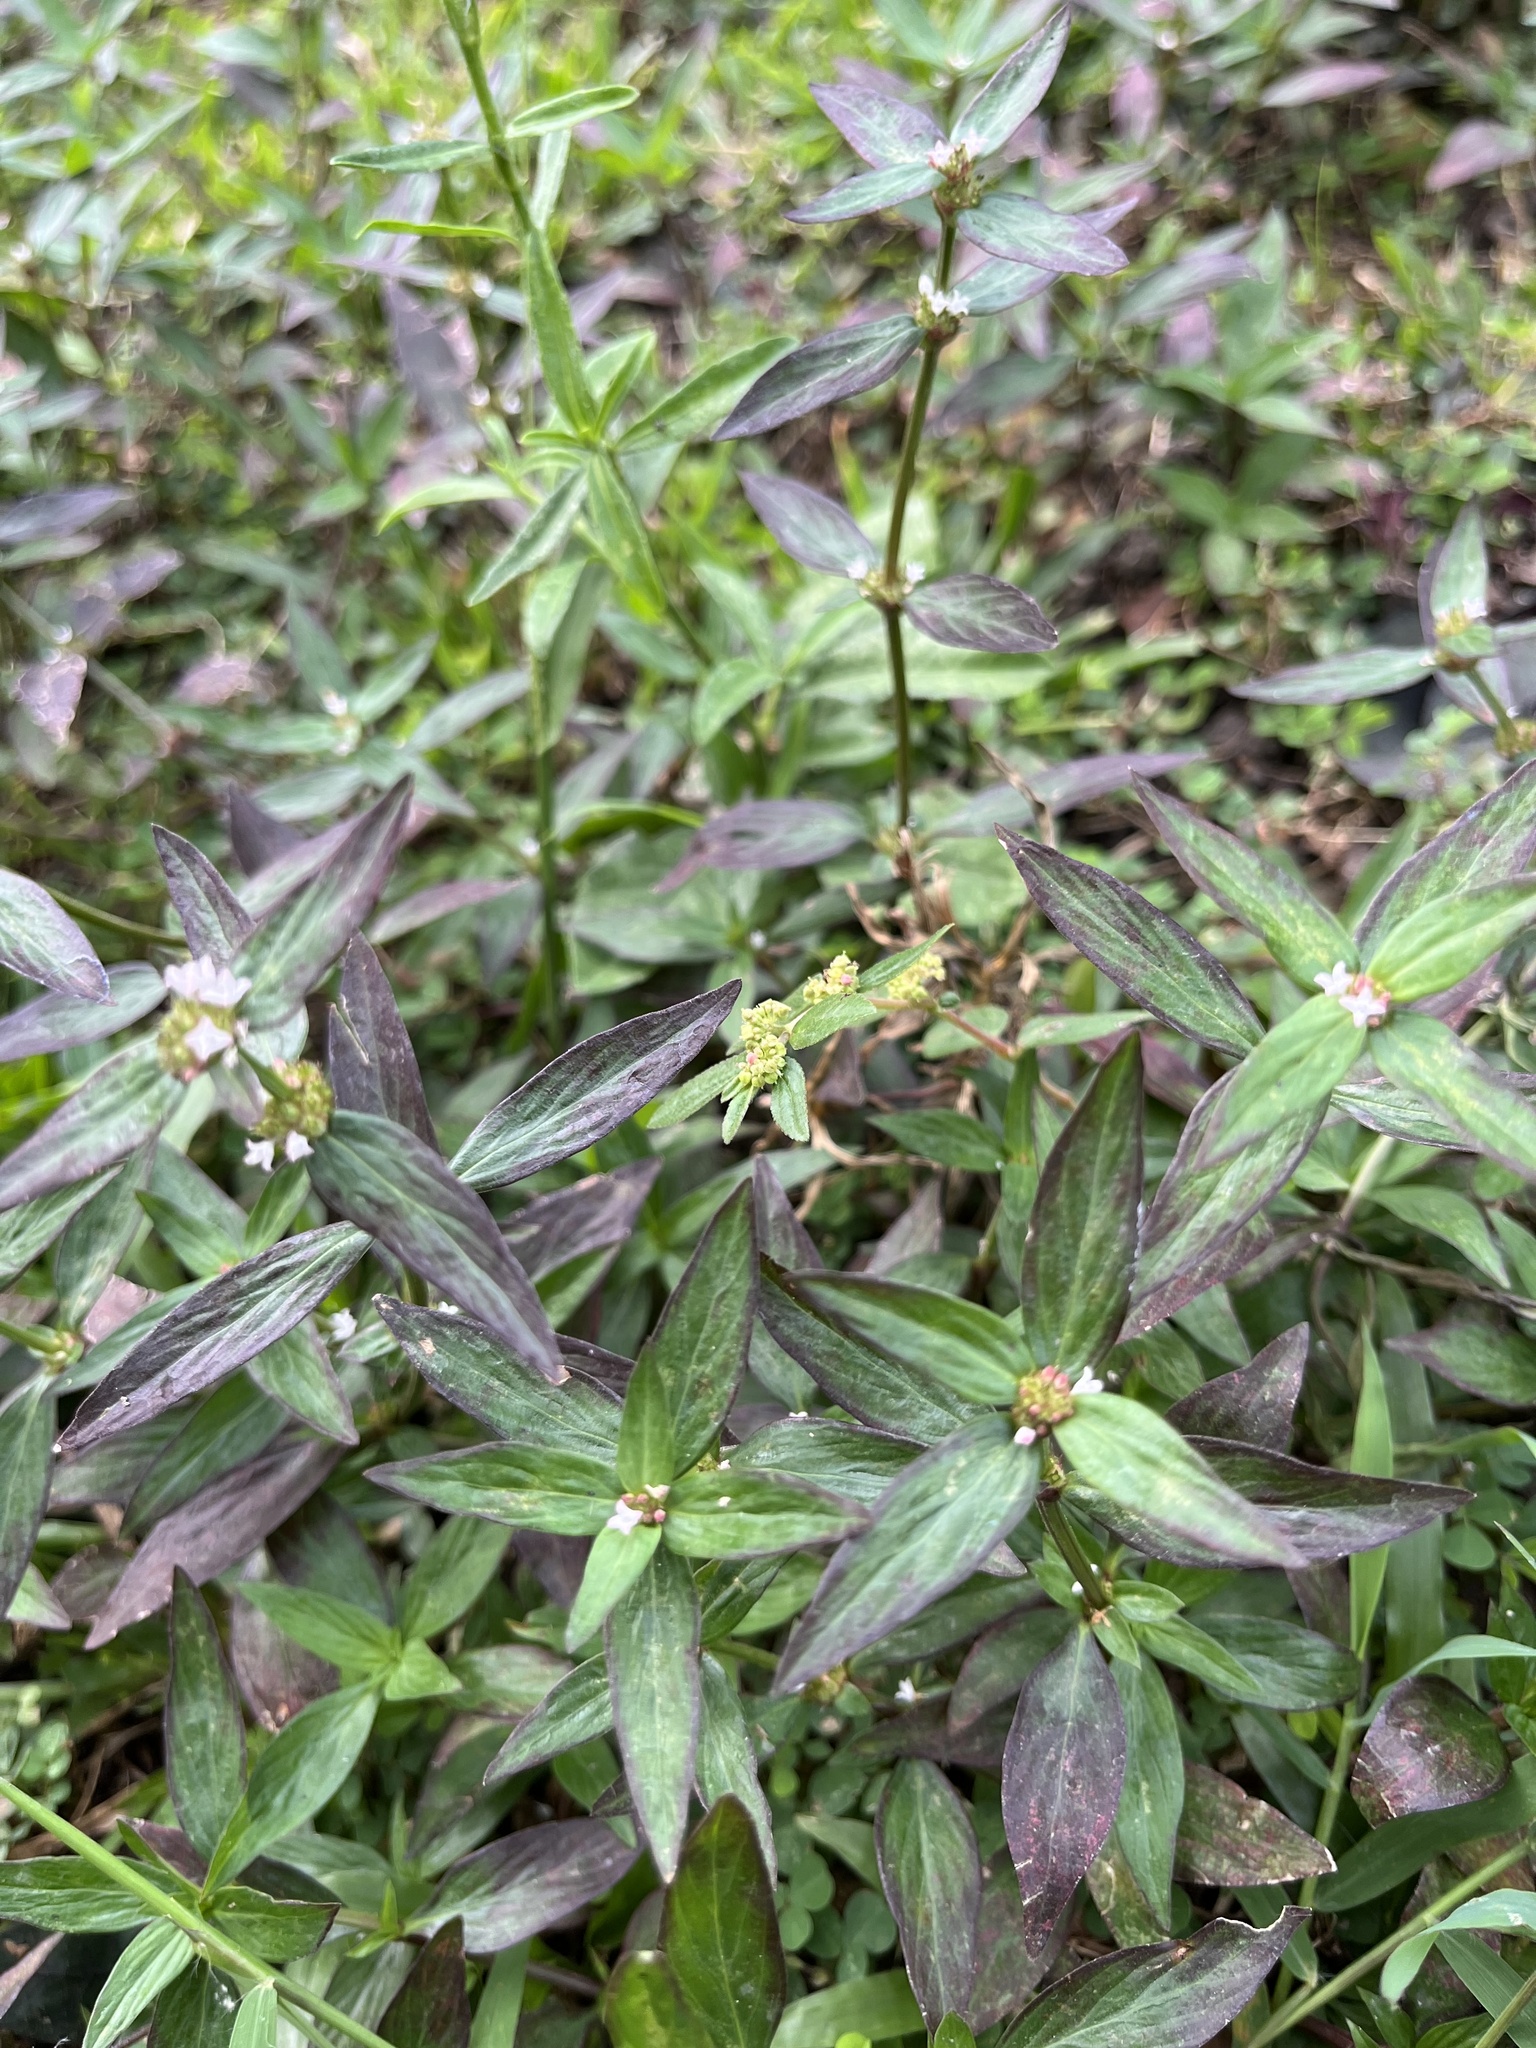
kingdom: Plantae
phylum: Tracheophyta
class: Magnoliopsida
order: Gentianales
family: Rubiaceae
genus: Spermacoce
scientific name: Spermacoce remota
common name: Woodland false buttonweed
